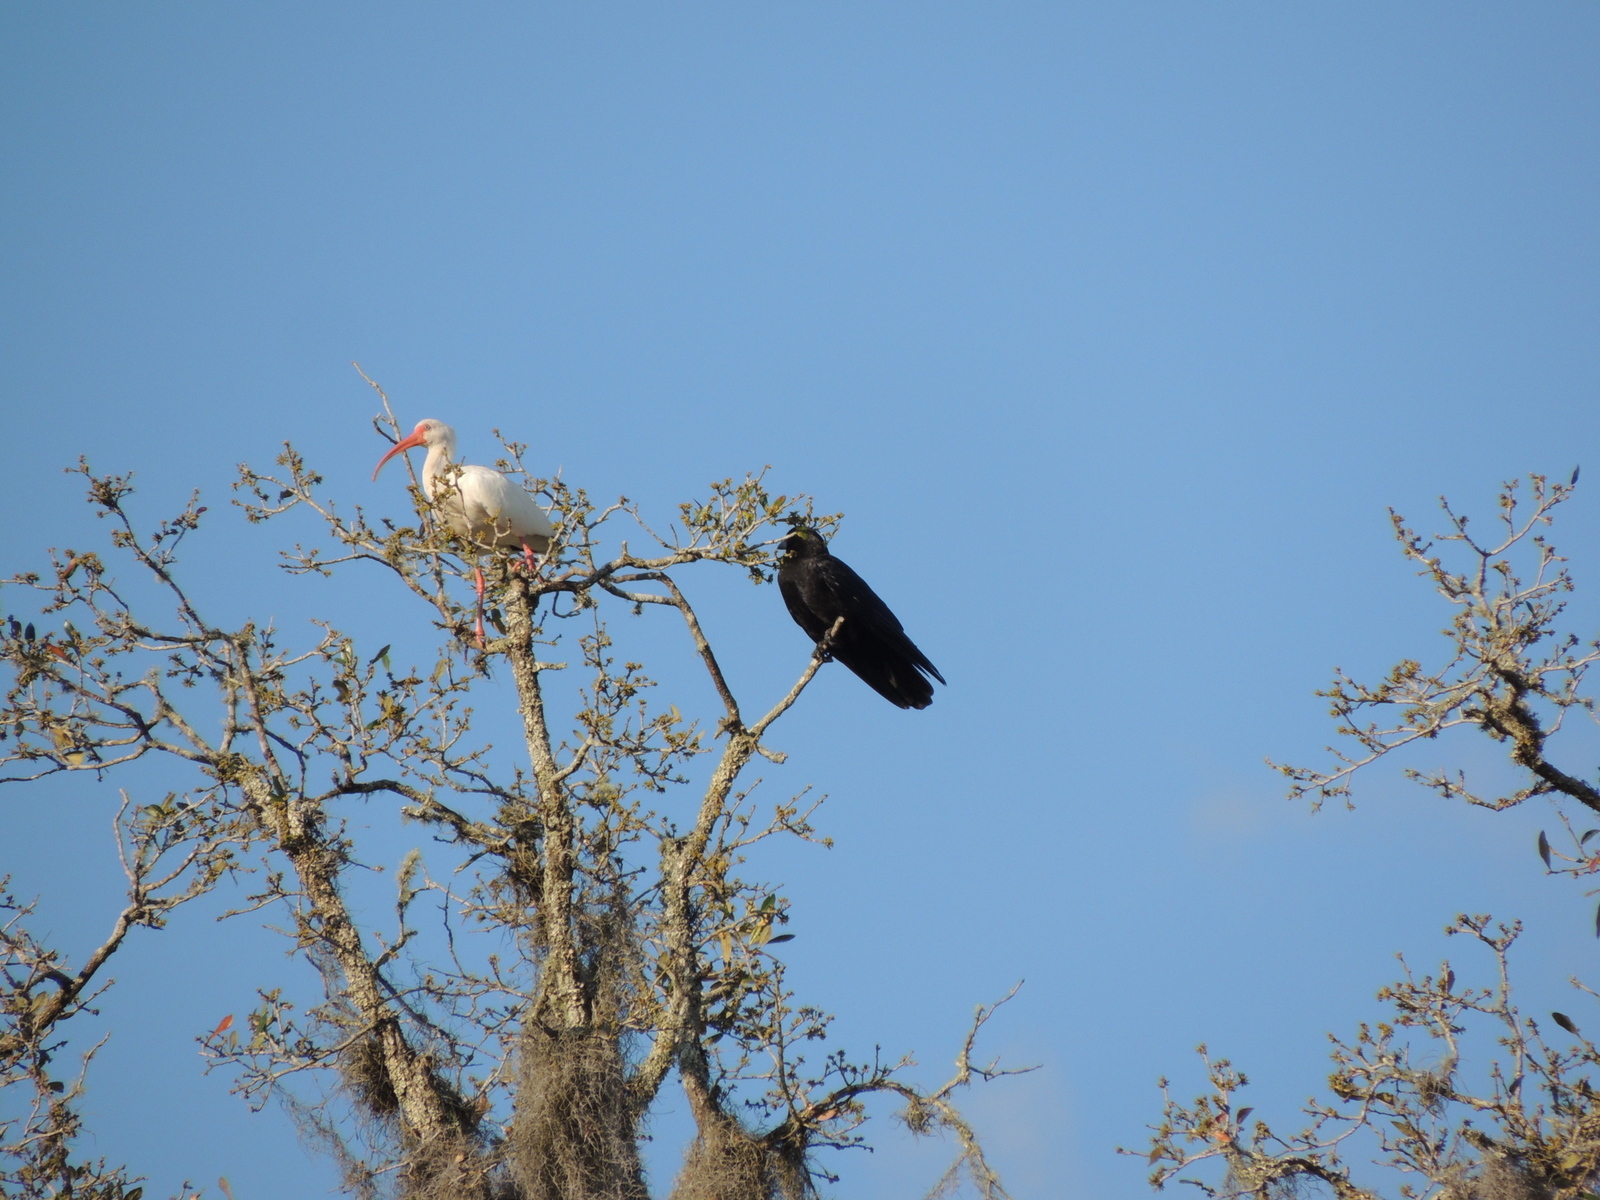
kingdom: Animalia
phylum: Chordata
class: Aves
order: Pelecaniformes
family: Threskiornithidae
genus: Eudocimus
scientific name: Eudocimus albus
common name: White ibis
